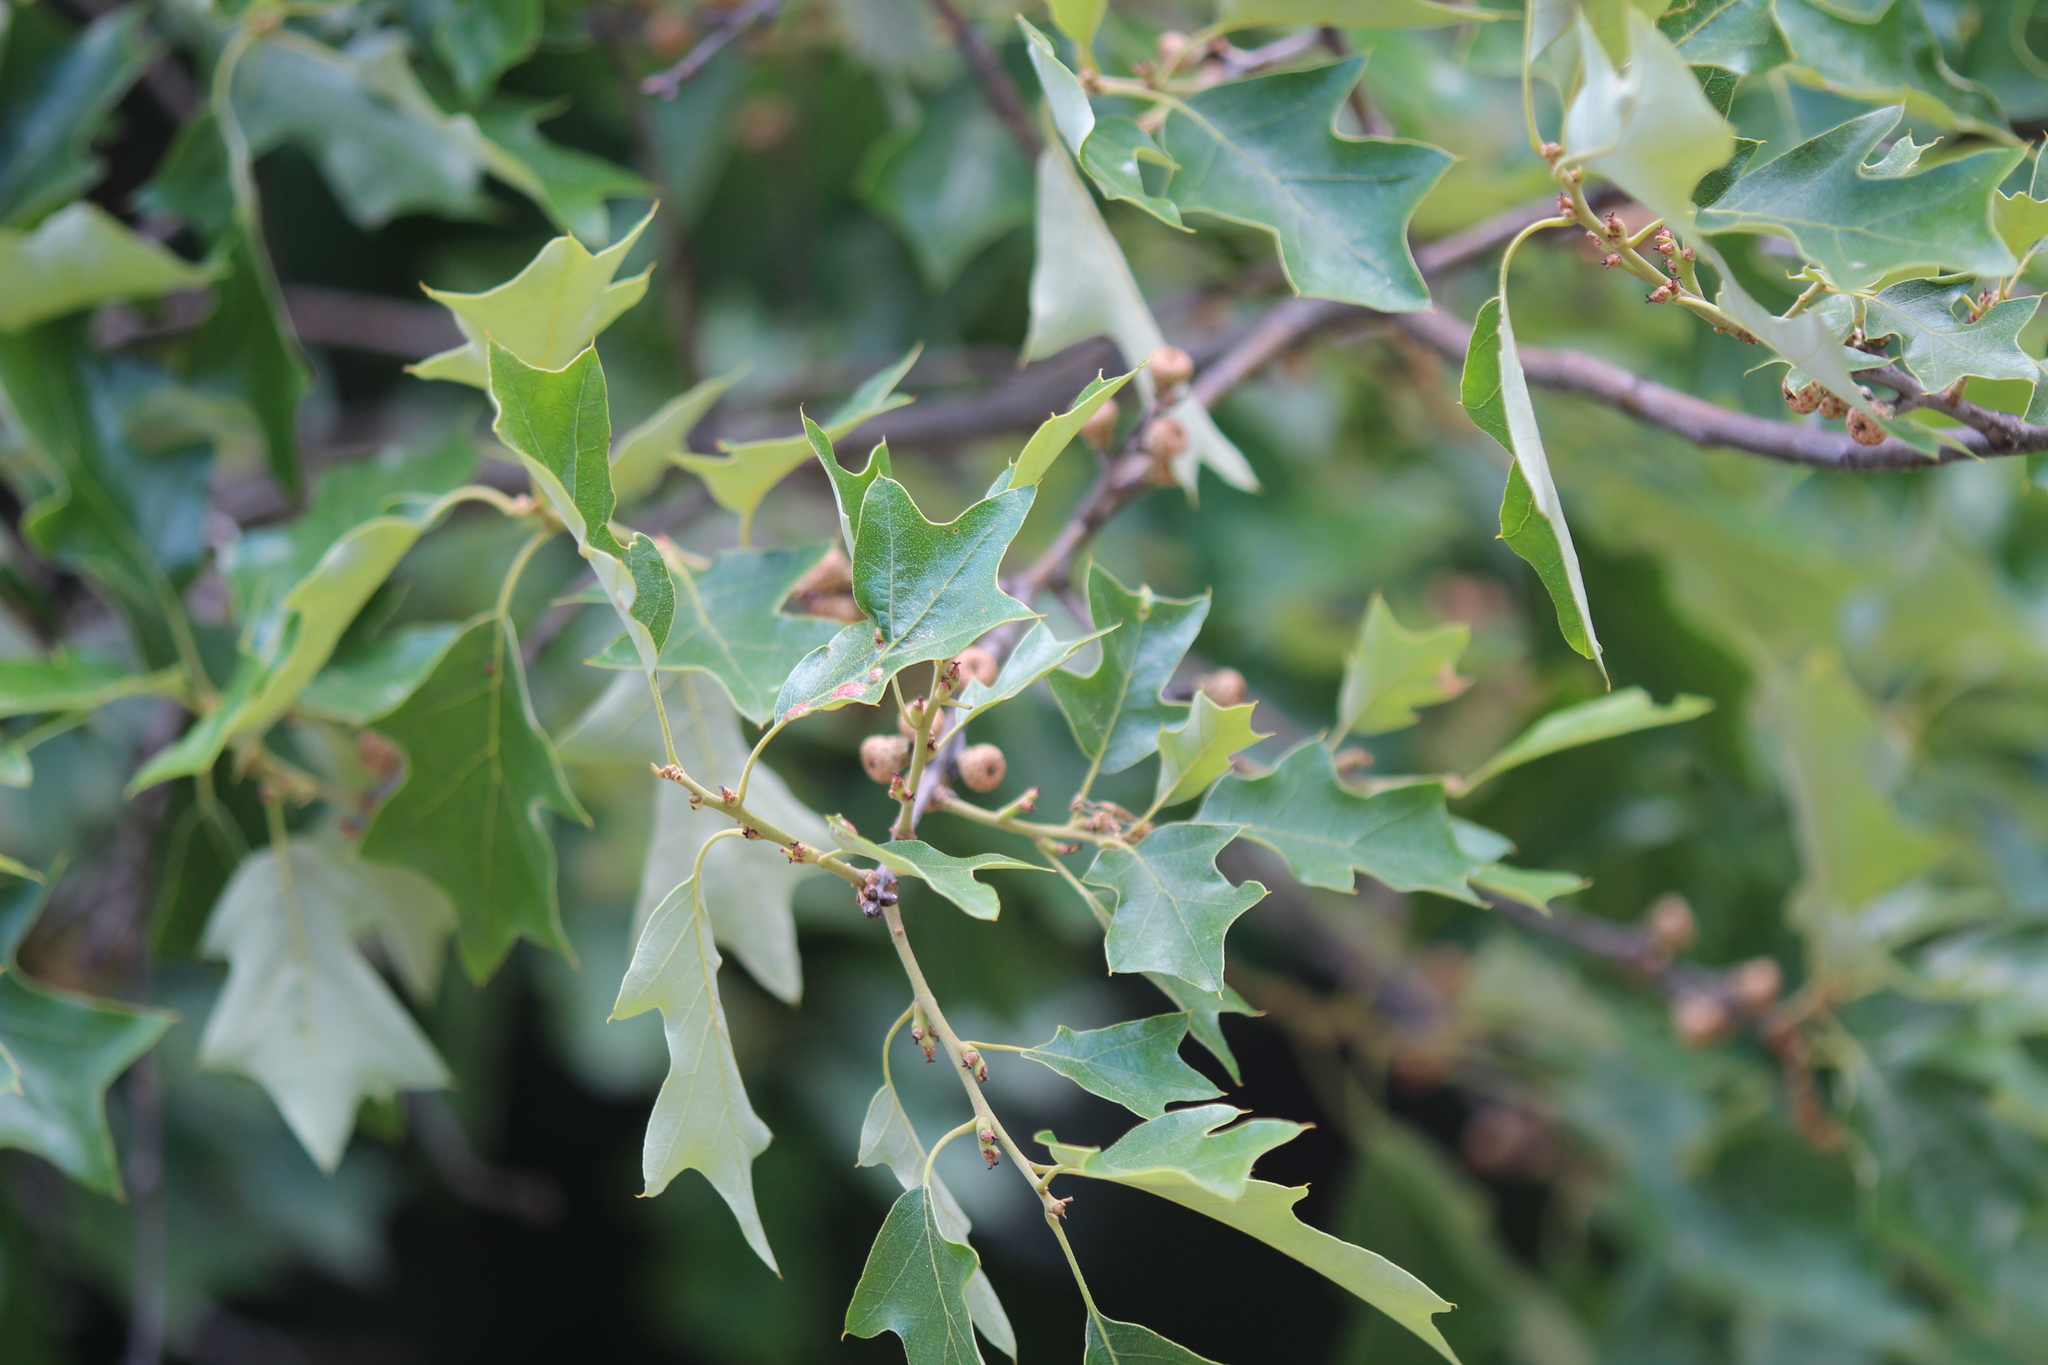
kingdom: Plantae
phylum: Tracheophyta
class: Magnoliopsida
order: Fagales
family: Fagaceae
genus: Quercus
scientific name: Quercus ilicifolia
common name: Bear oak
